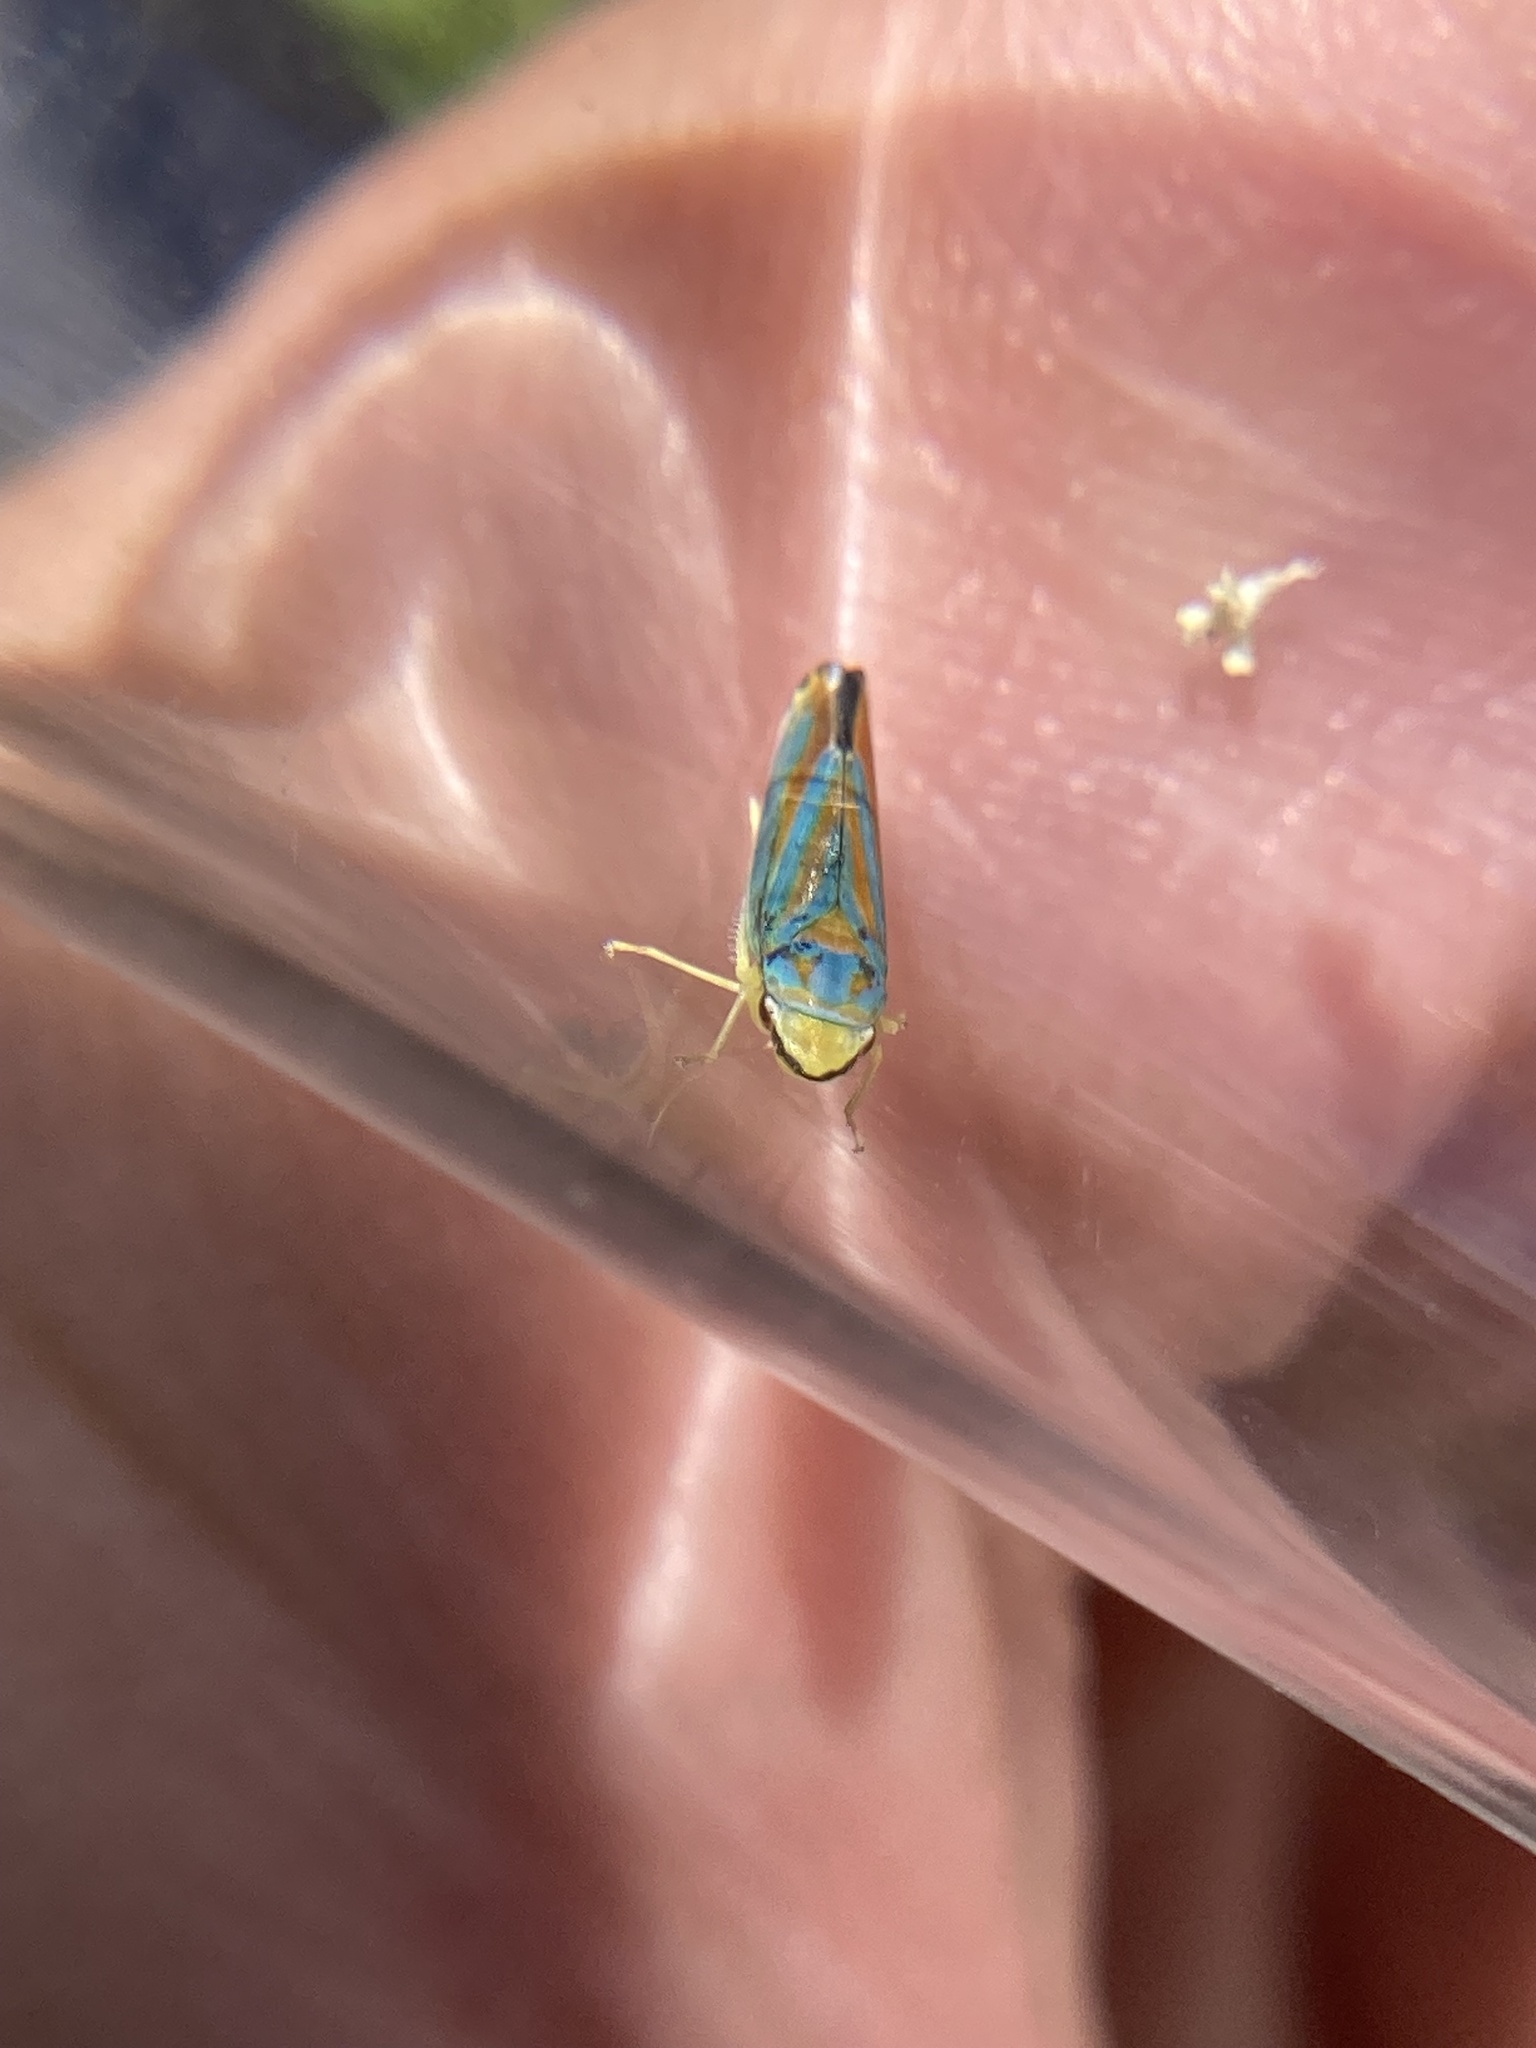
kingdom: Animalia
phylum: Arthropoda
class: Insecta
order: Hemiptera
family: Cicadellidae
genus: Graphocephala
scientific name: Graphocephala coccinea
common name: Candy-striped leafhopper
